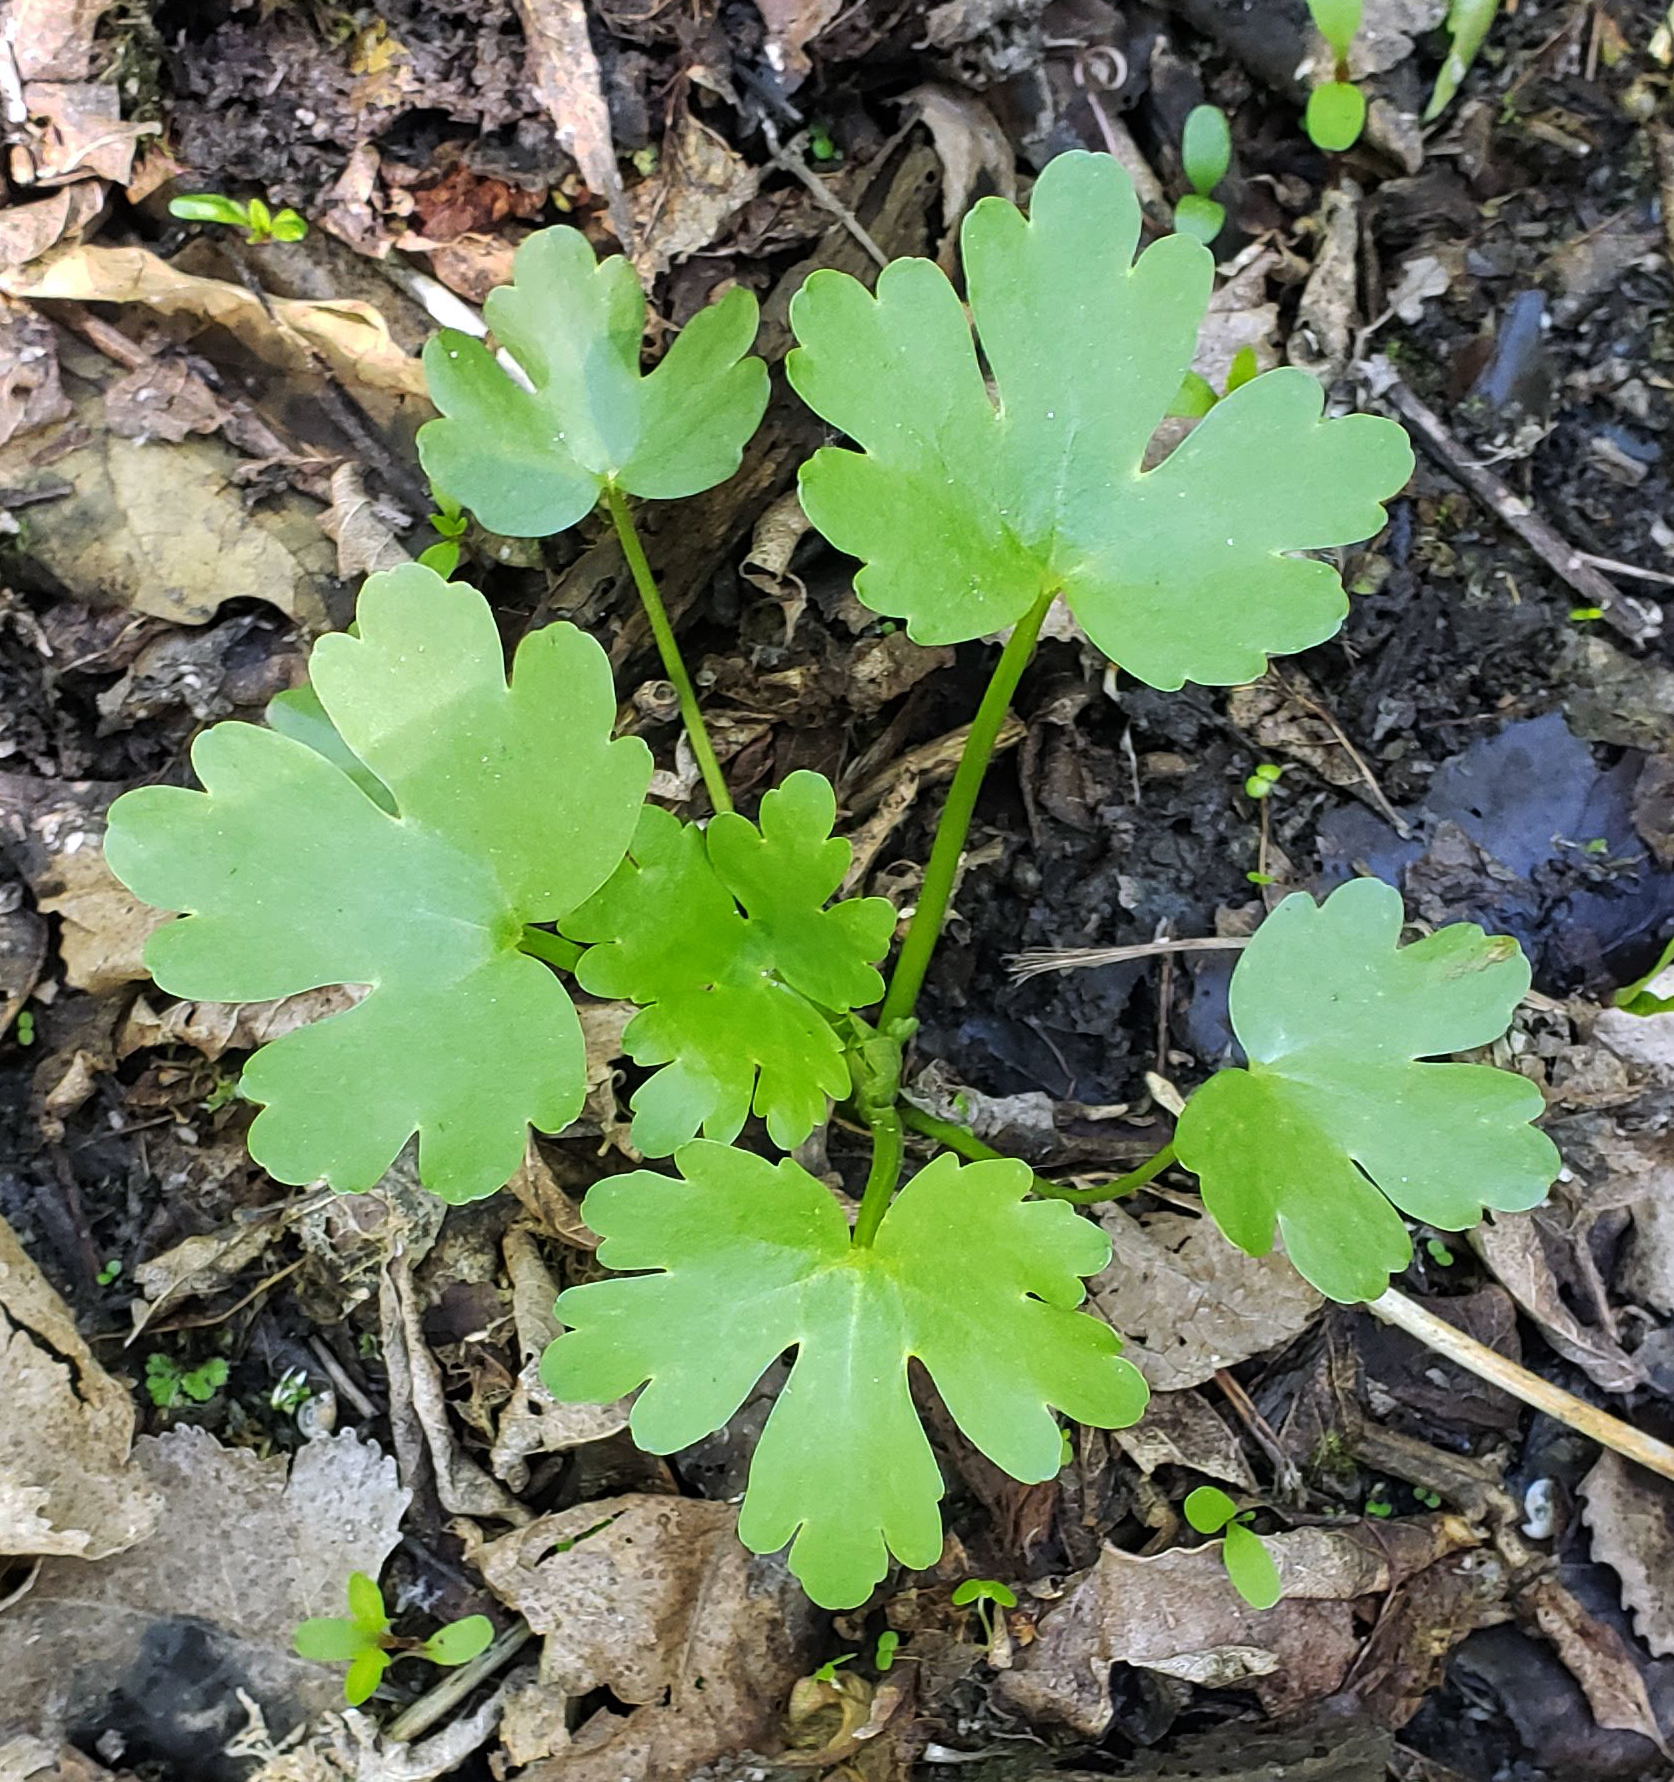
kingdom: Plantae
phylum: Tracheophyta
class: Magnoliopsida
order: Ranunculales
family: Ranunculaceae
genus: Ranunculus
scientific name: Ranunculus sceleratus
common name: Celery-leaved buttercup
